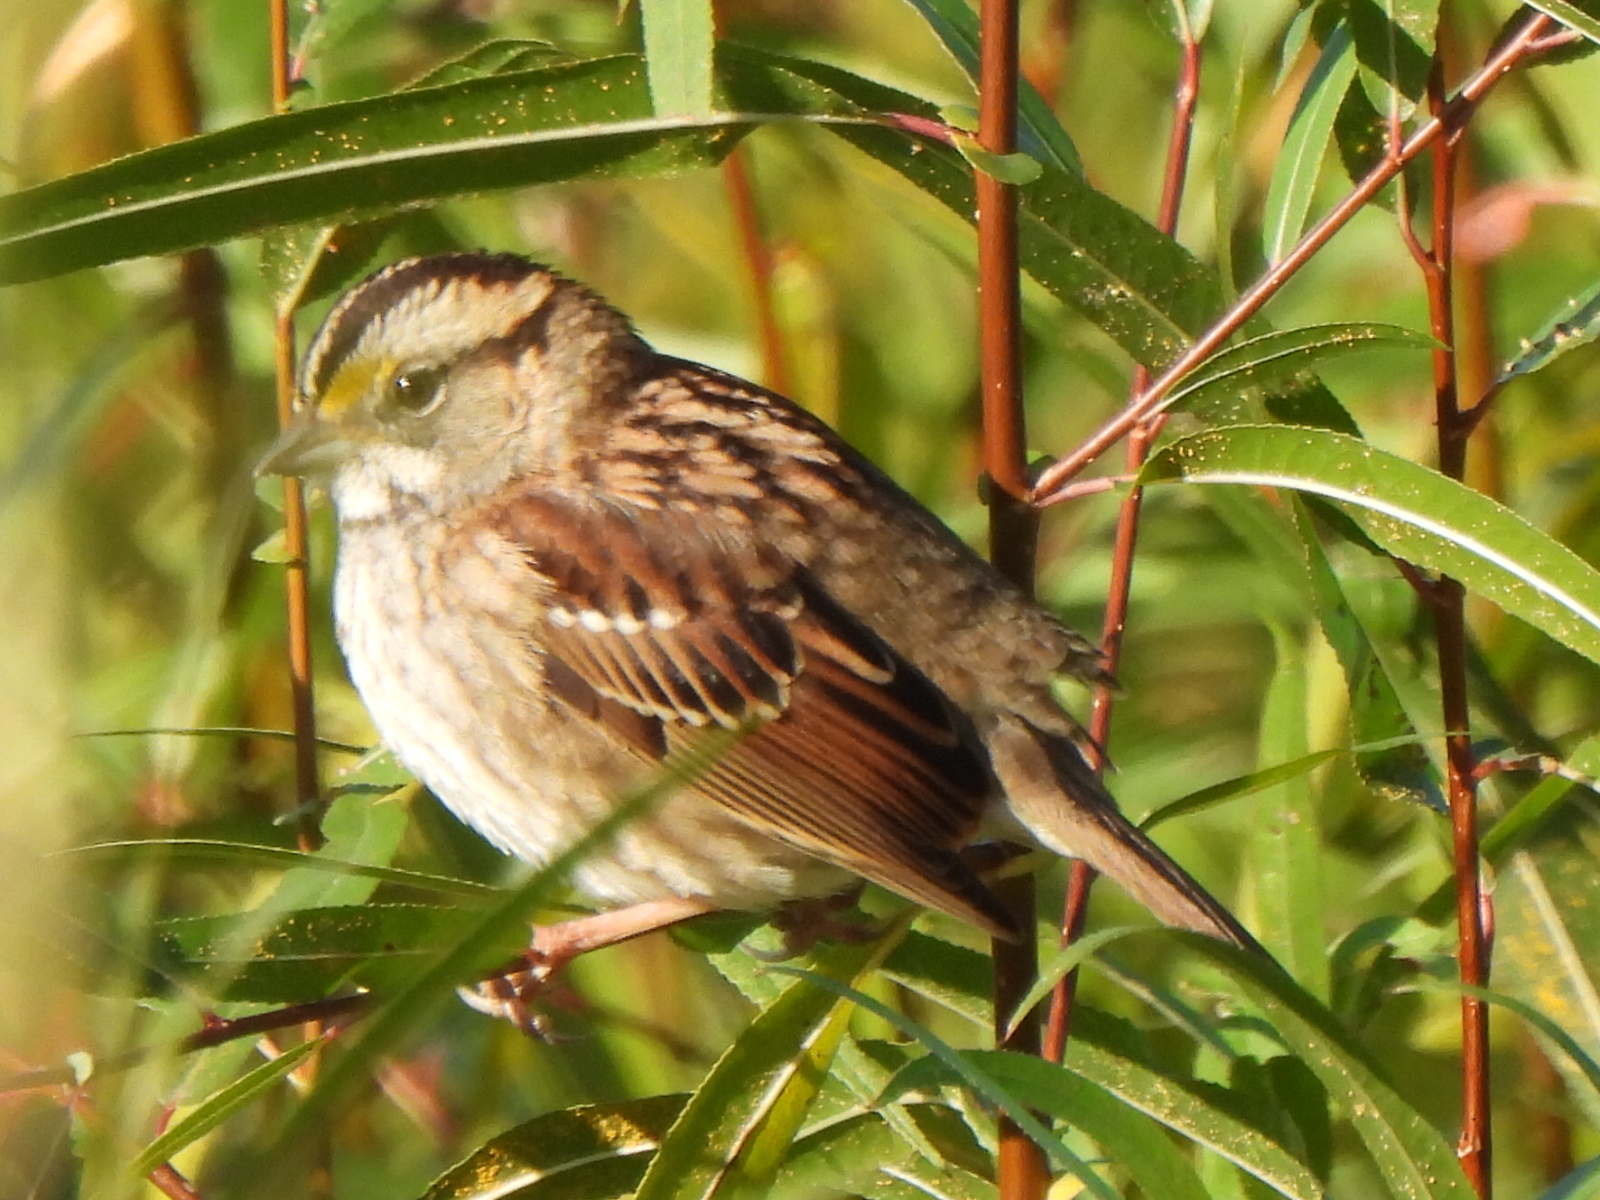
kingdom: Animalia
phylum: Chordata
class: Aves
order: Passeriformes
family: Passerellidae
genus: Zonotrichia
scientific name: Zonotrichia albicollis
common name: White-throated sparrow
